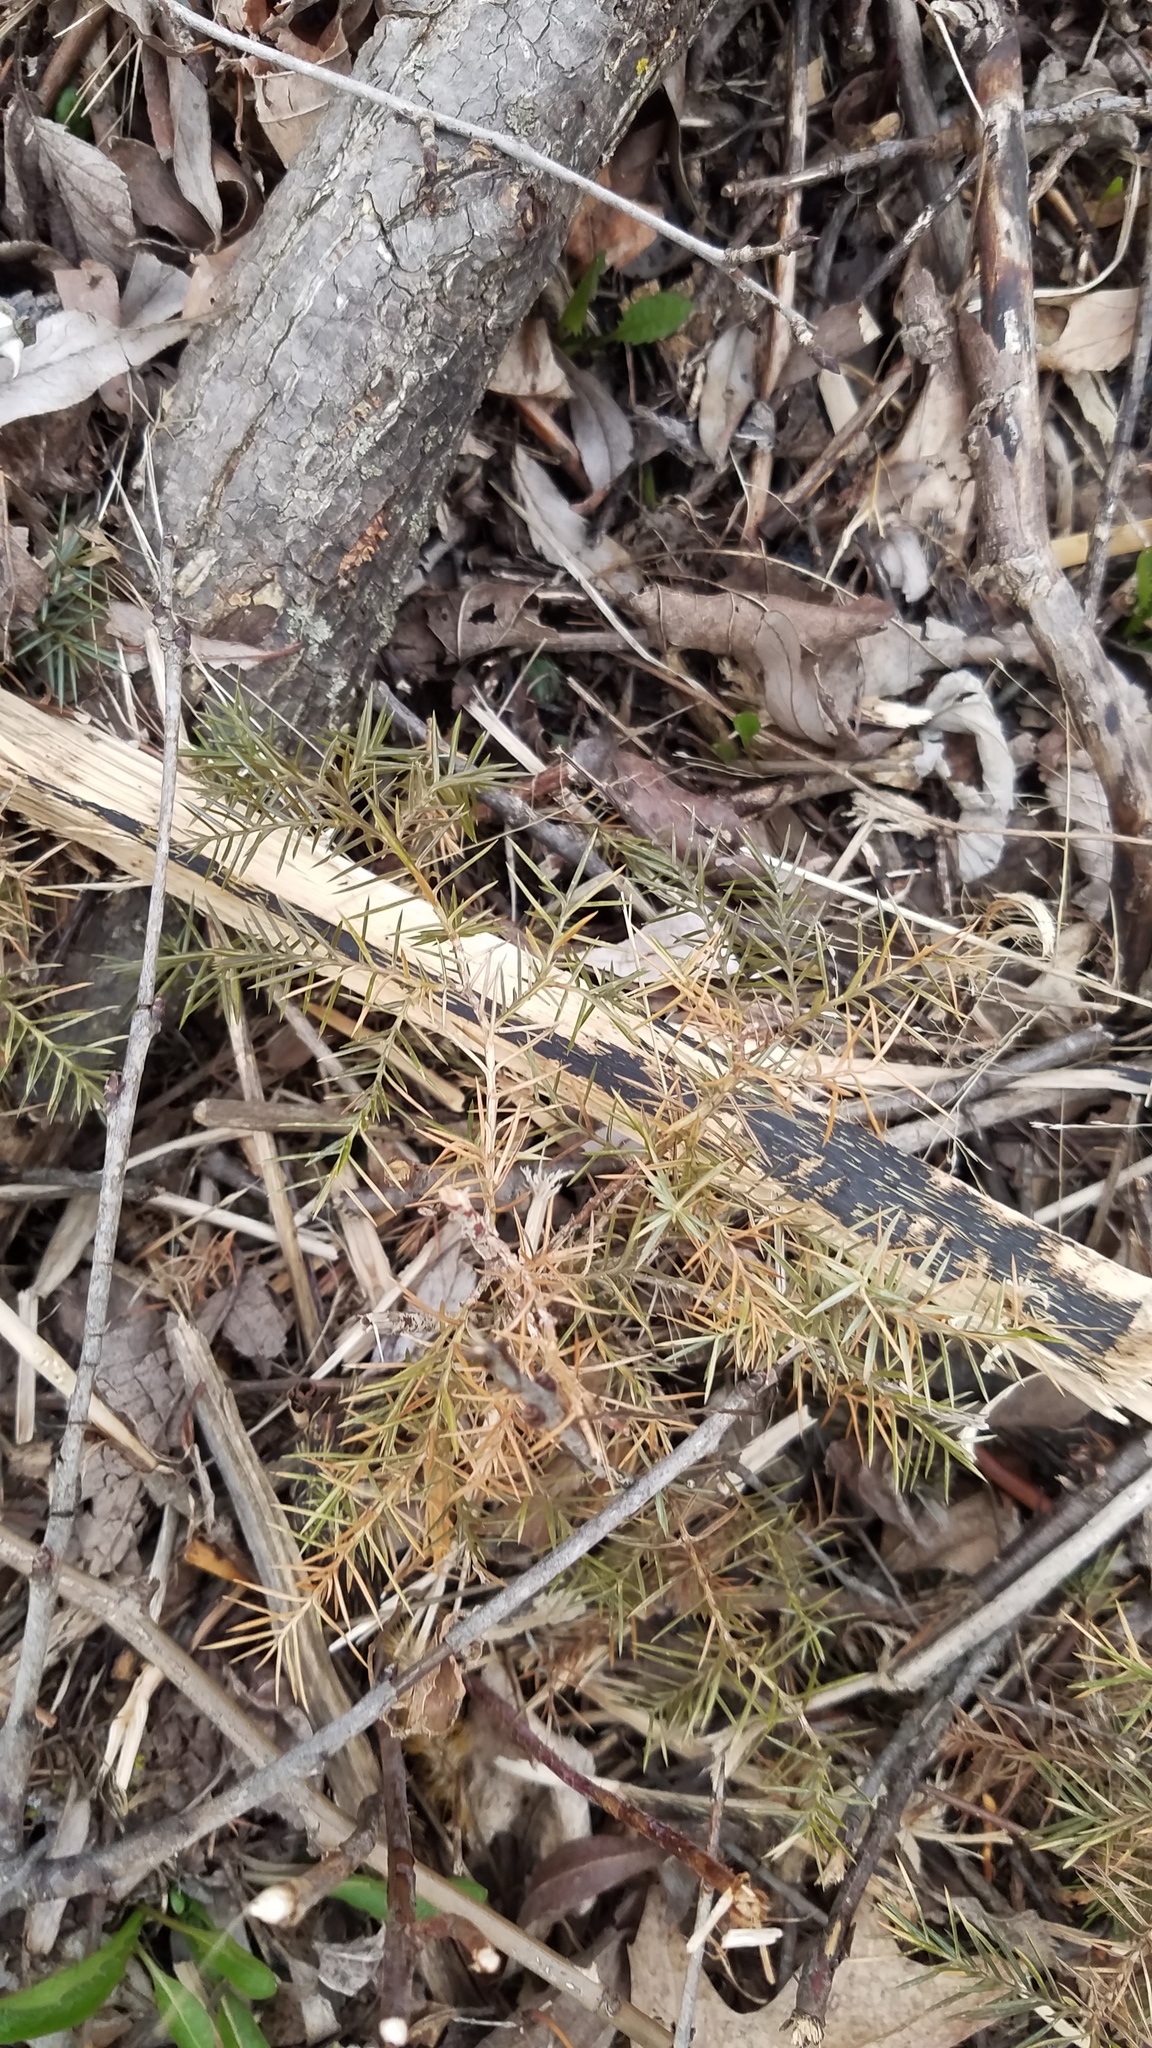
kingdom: Plantae
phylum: Tracheophyta
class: Pinopsida
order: Pinales
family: Cupressaceae
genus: Juniperus
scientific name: Juniperus virginiana
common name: Red juniper
